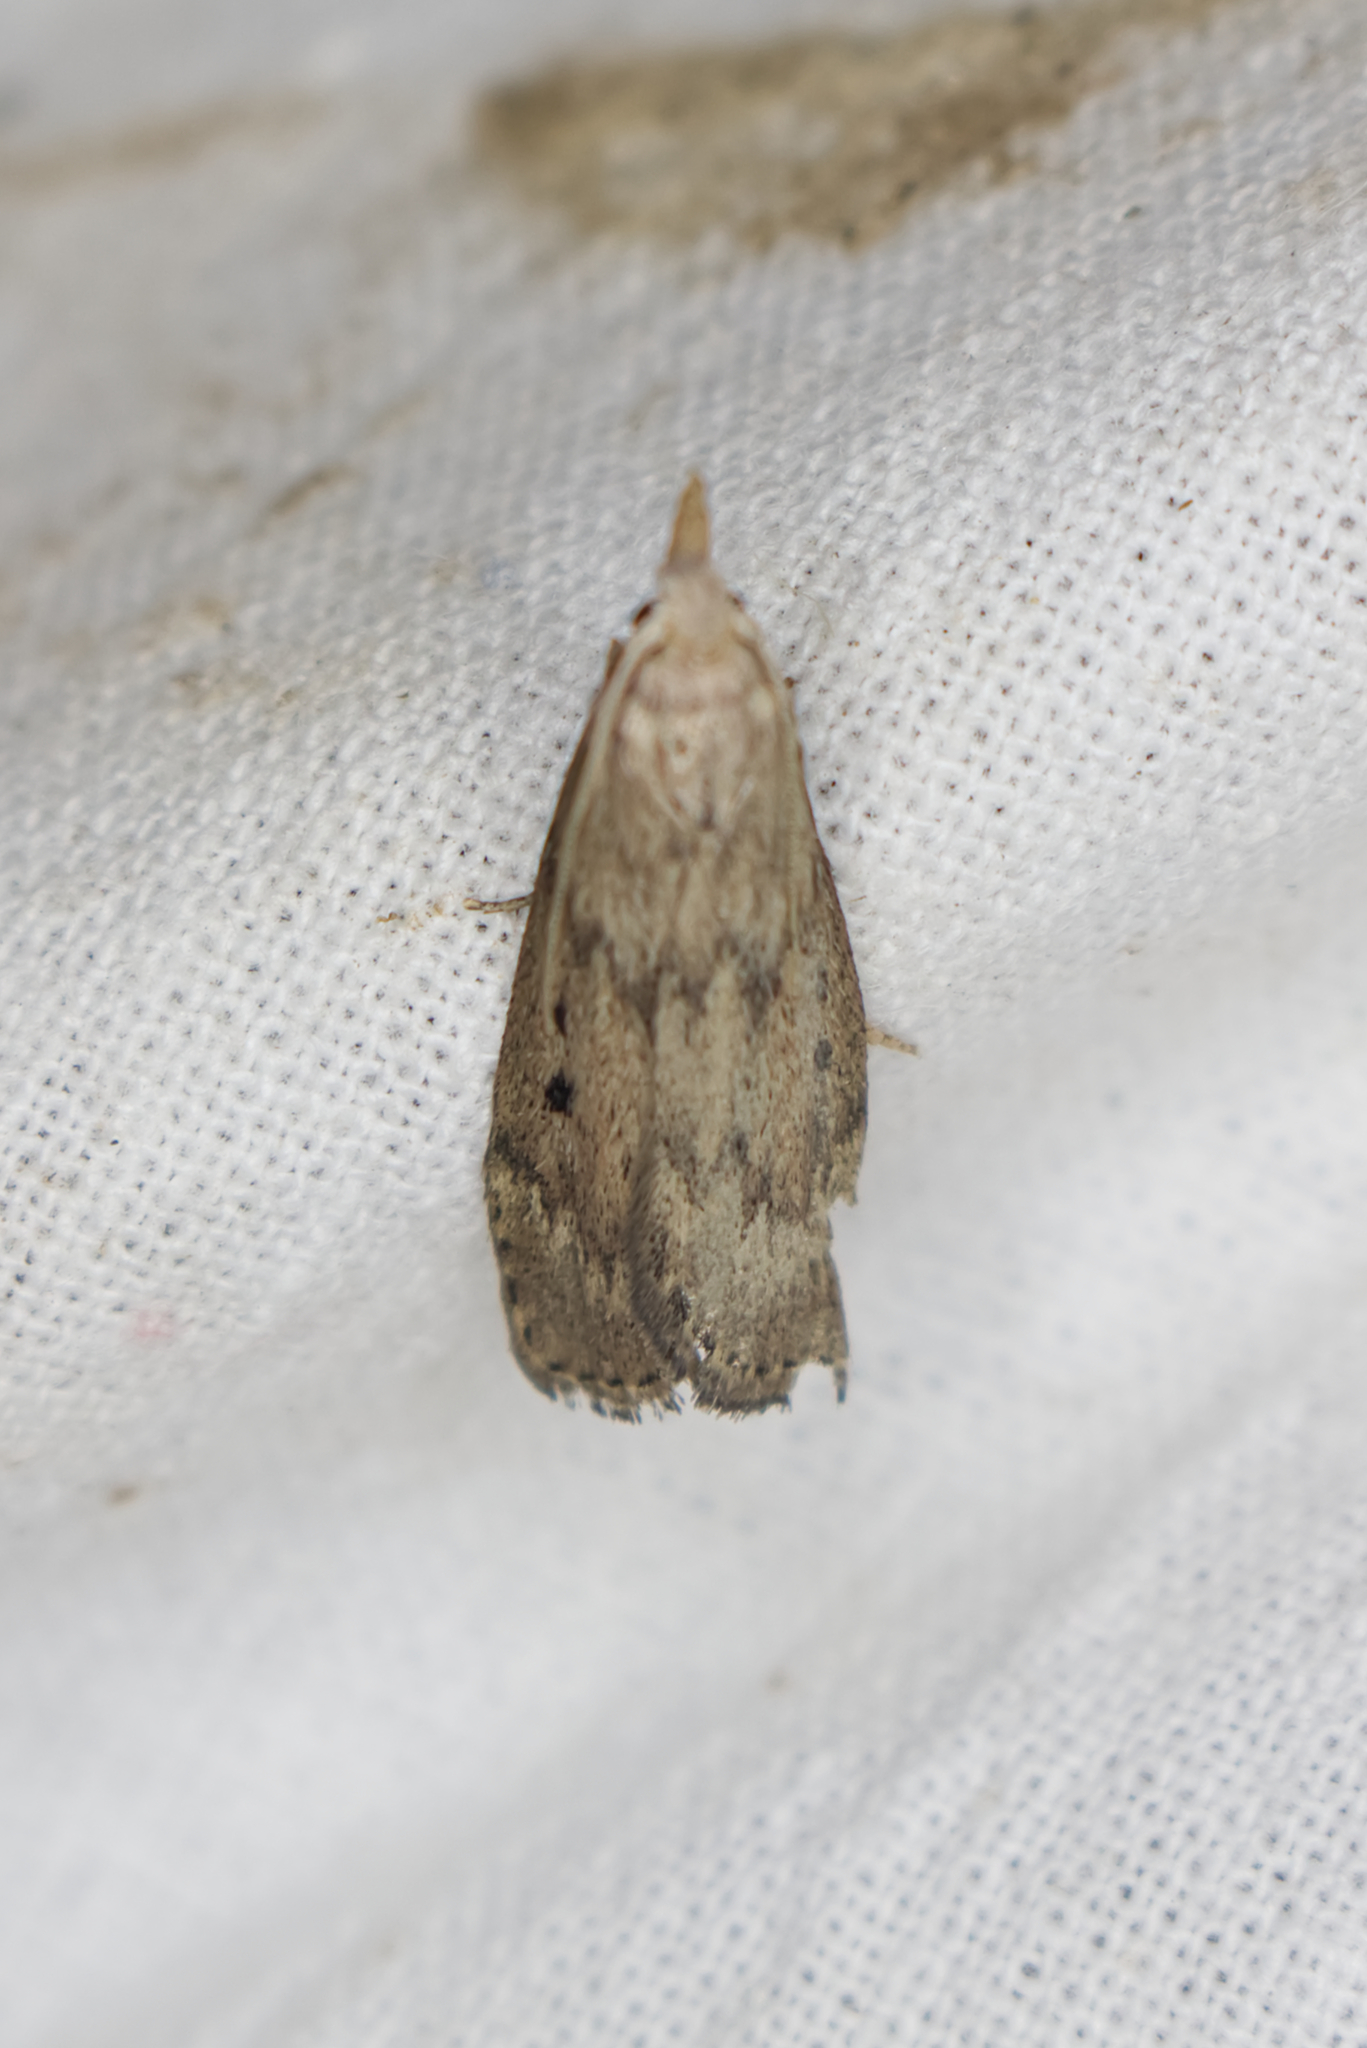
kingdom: Animalia
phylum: Arthropoda
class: Insecta
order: Lepidoptera
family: Pyralidae
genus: Aphomia
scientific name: Aphomia sociella
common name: Bee moth
